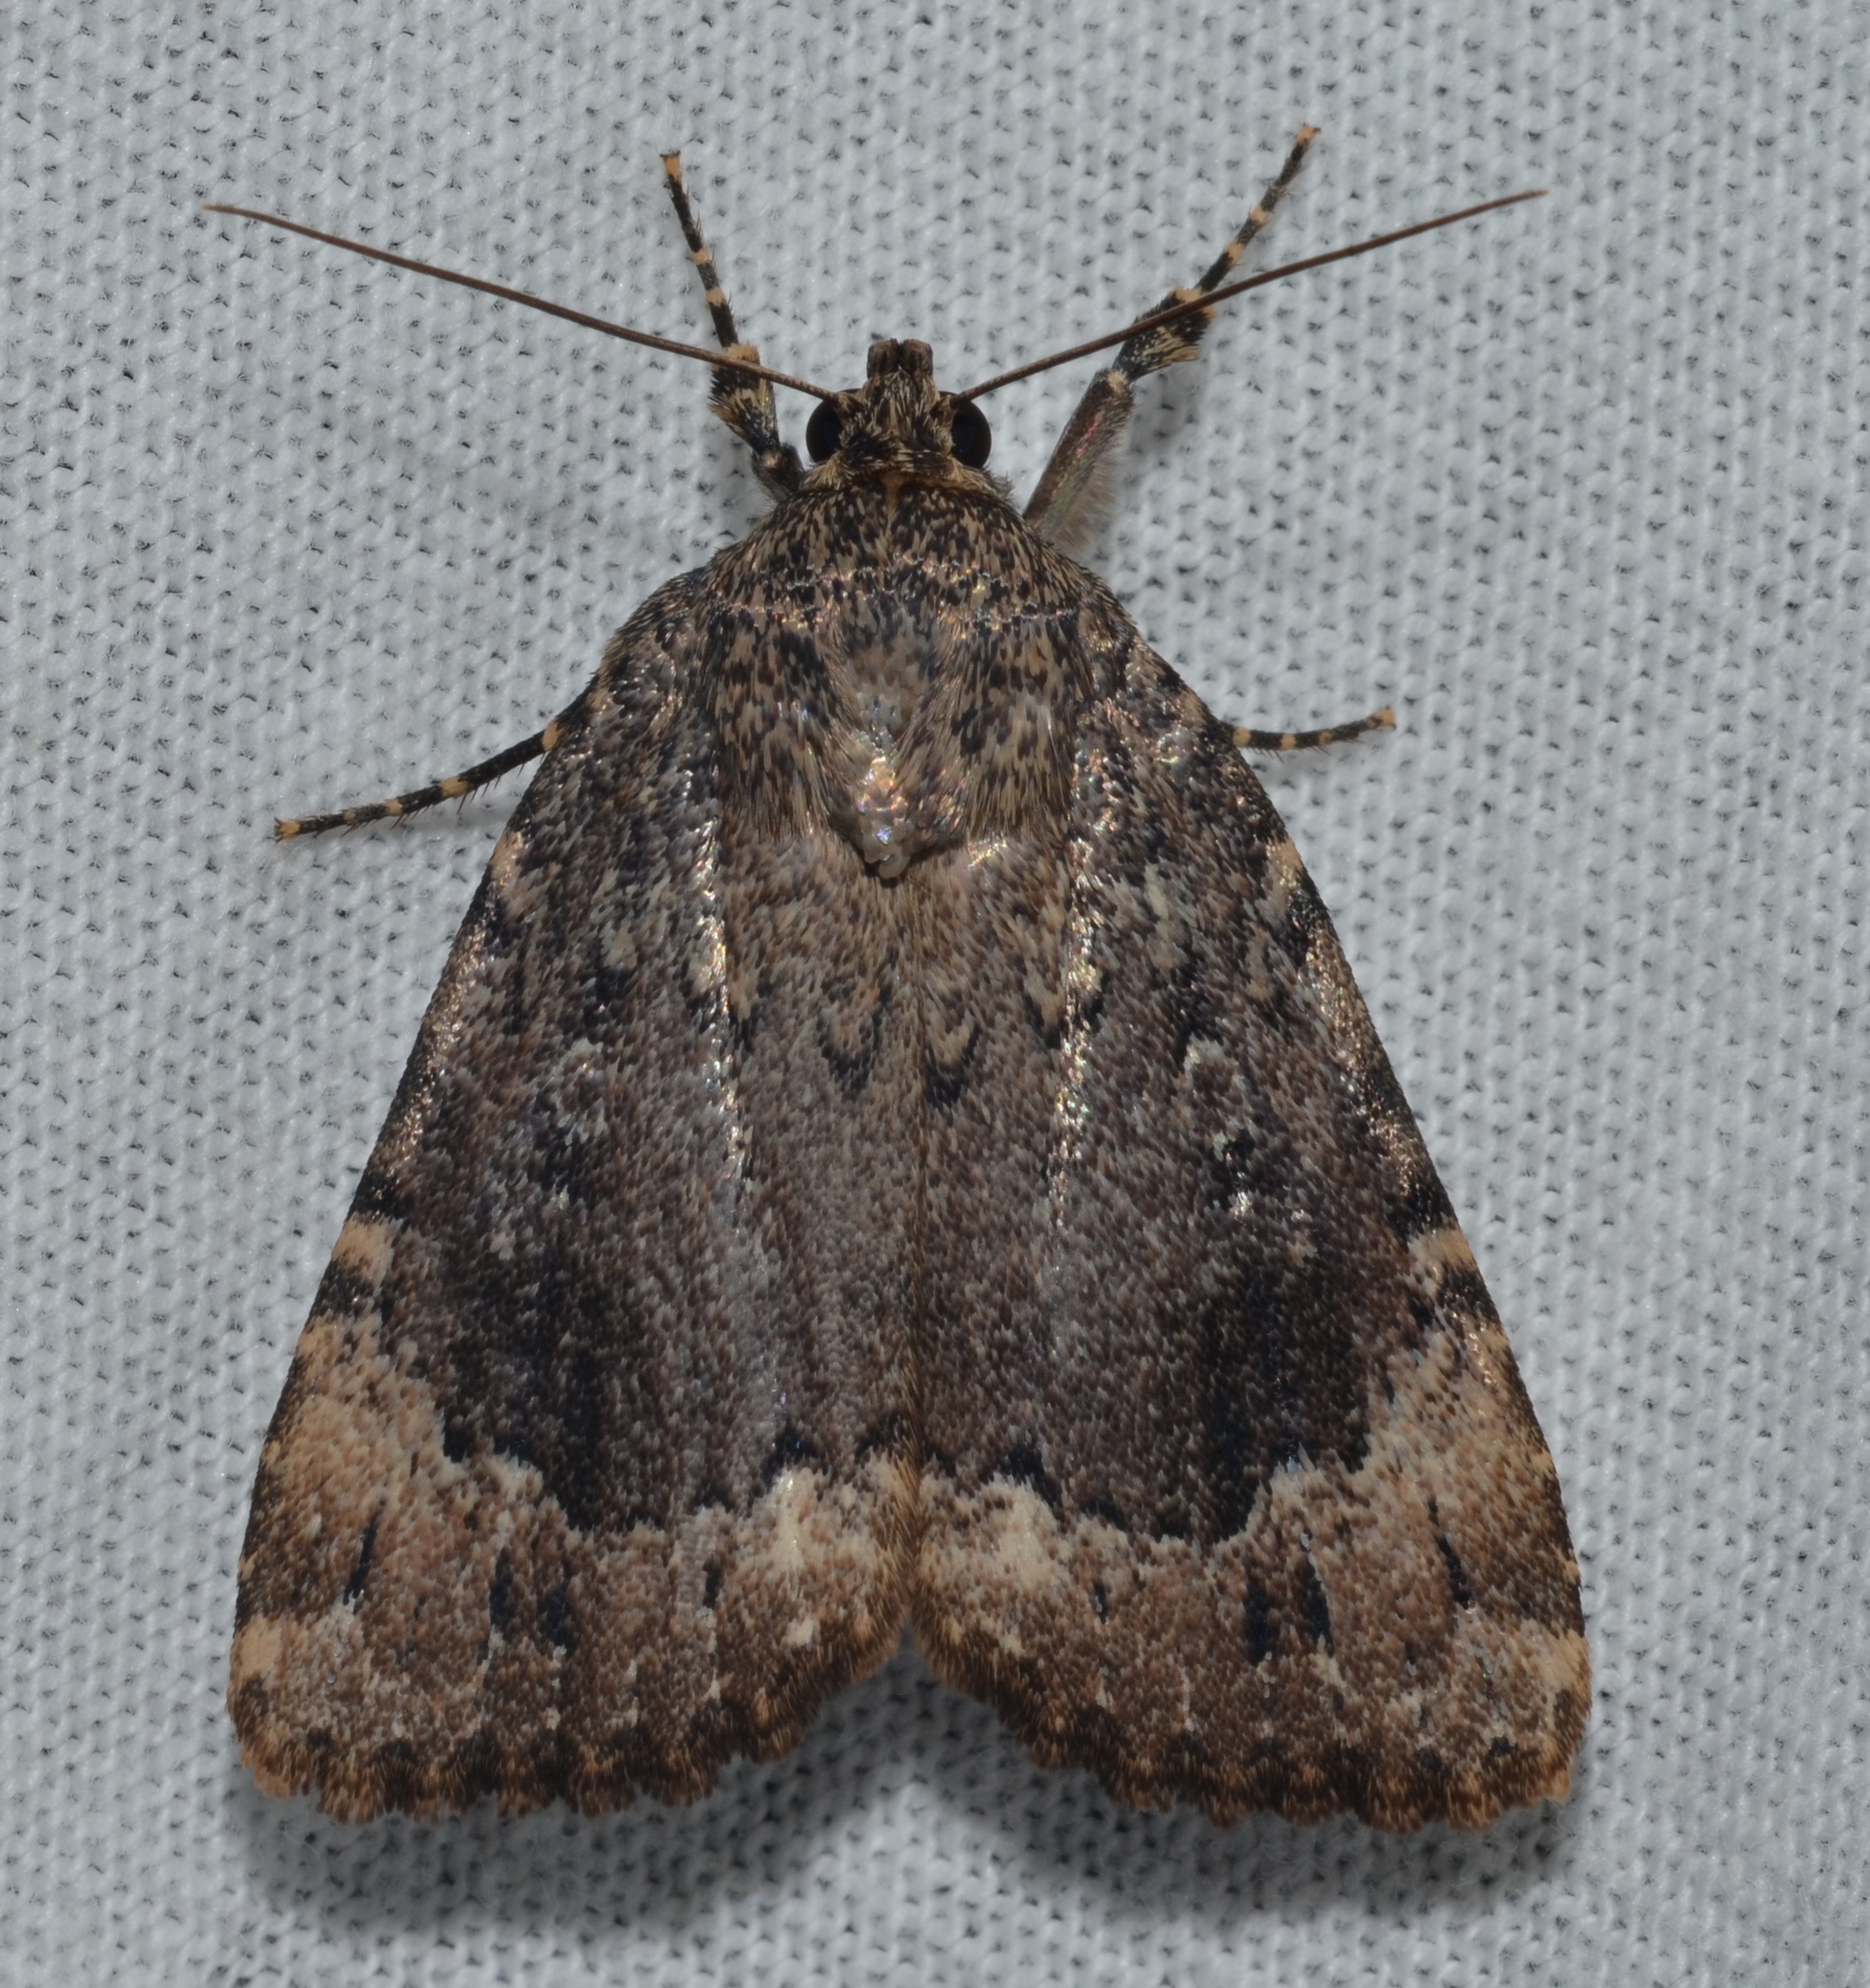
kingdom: Animalia
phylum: Arthropoda
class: Insecta
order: Lepidoptera
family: Noctuidae
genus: Amphipyra
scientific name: Amphipyra pyramidoides
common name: American copper underwing
